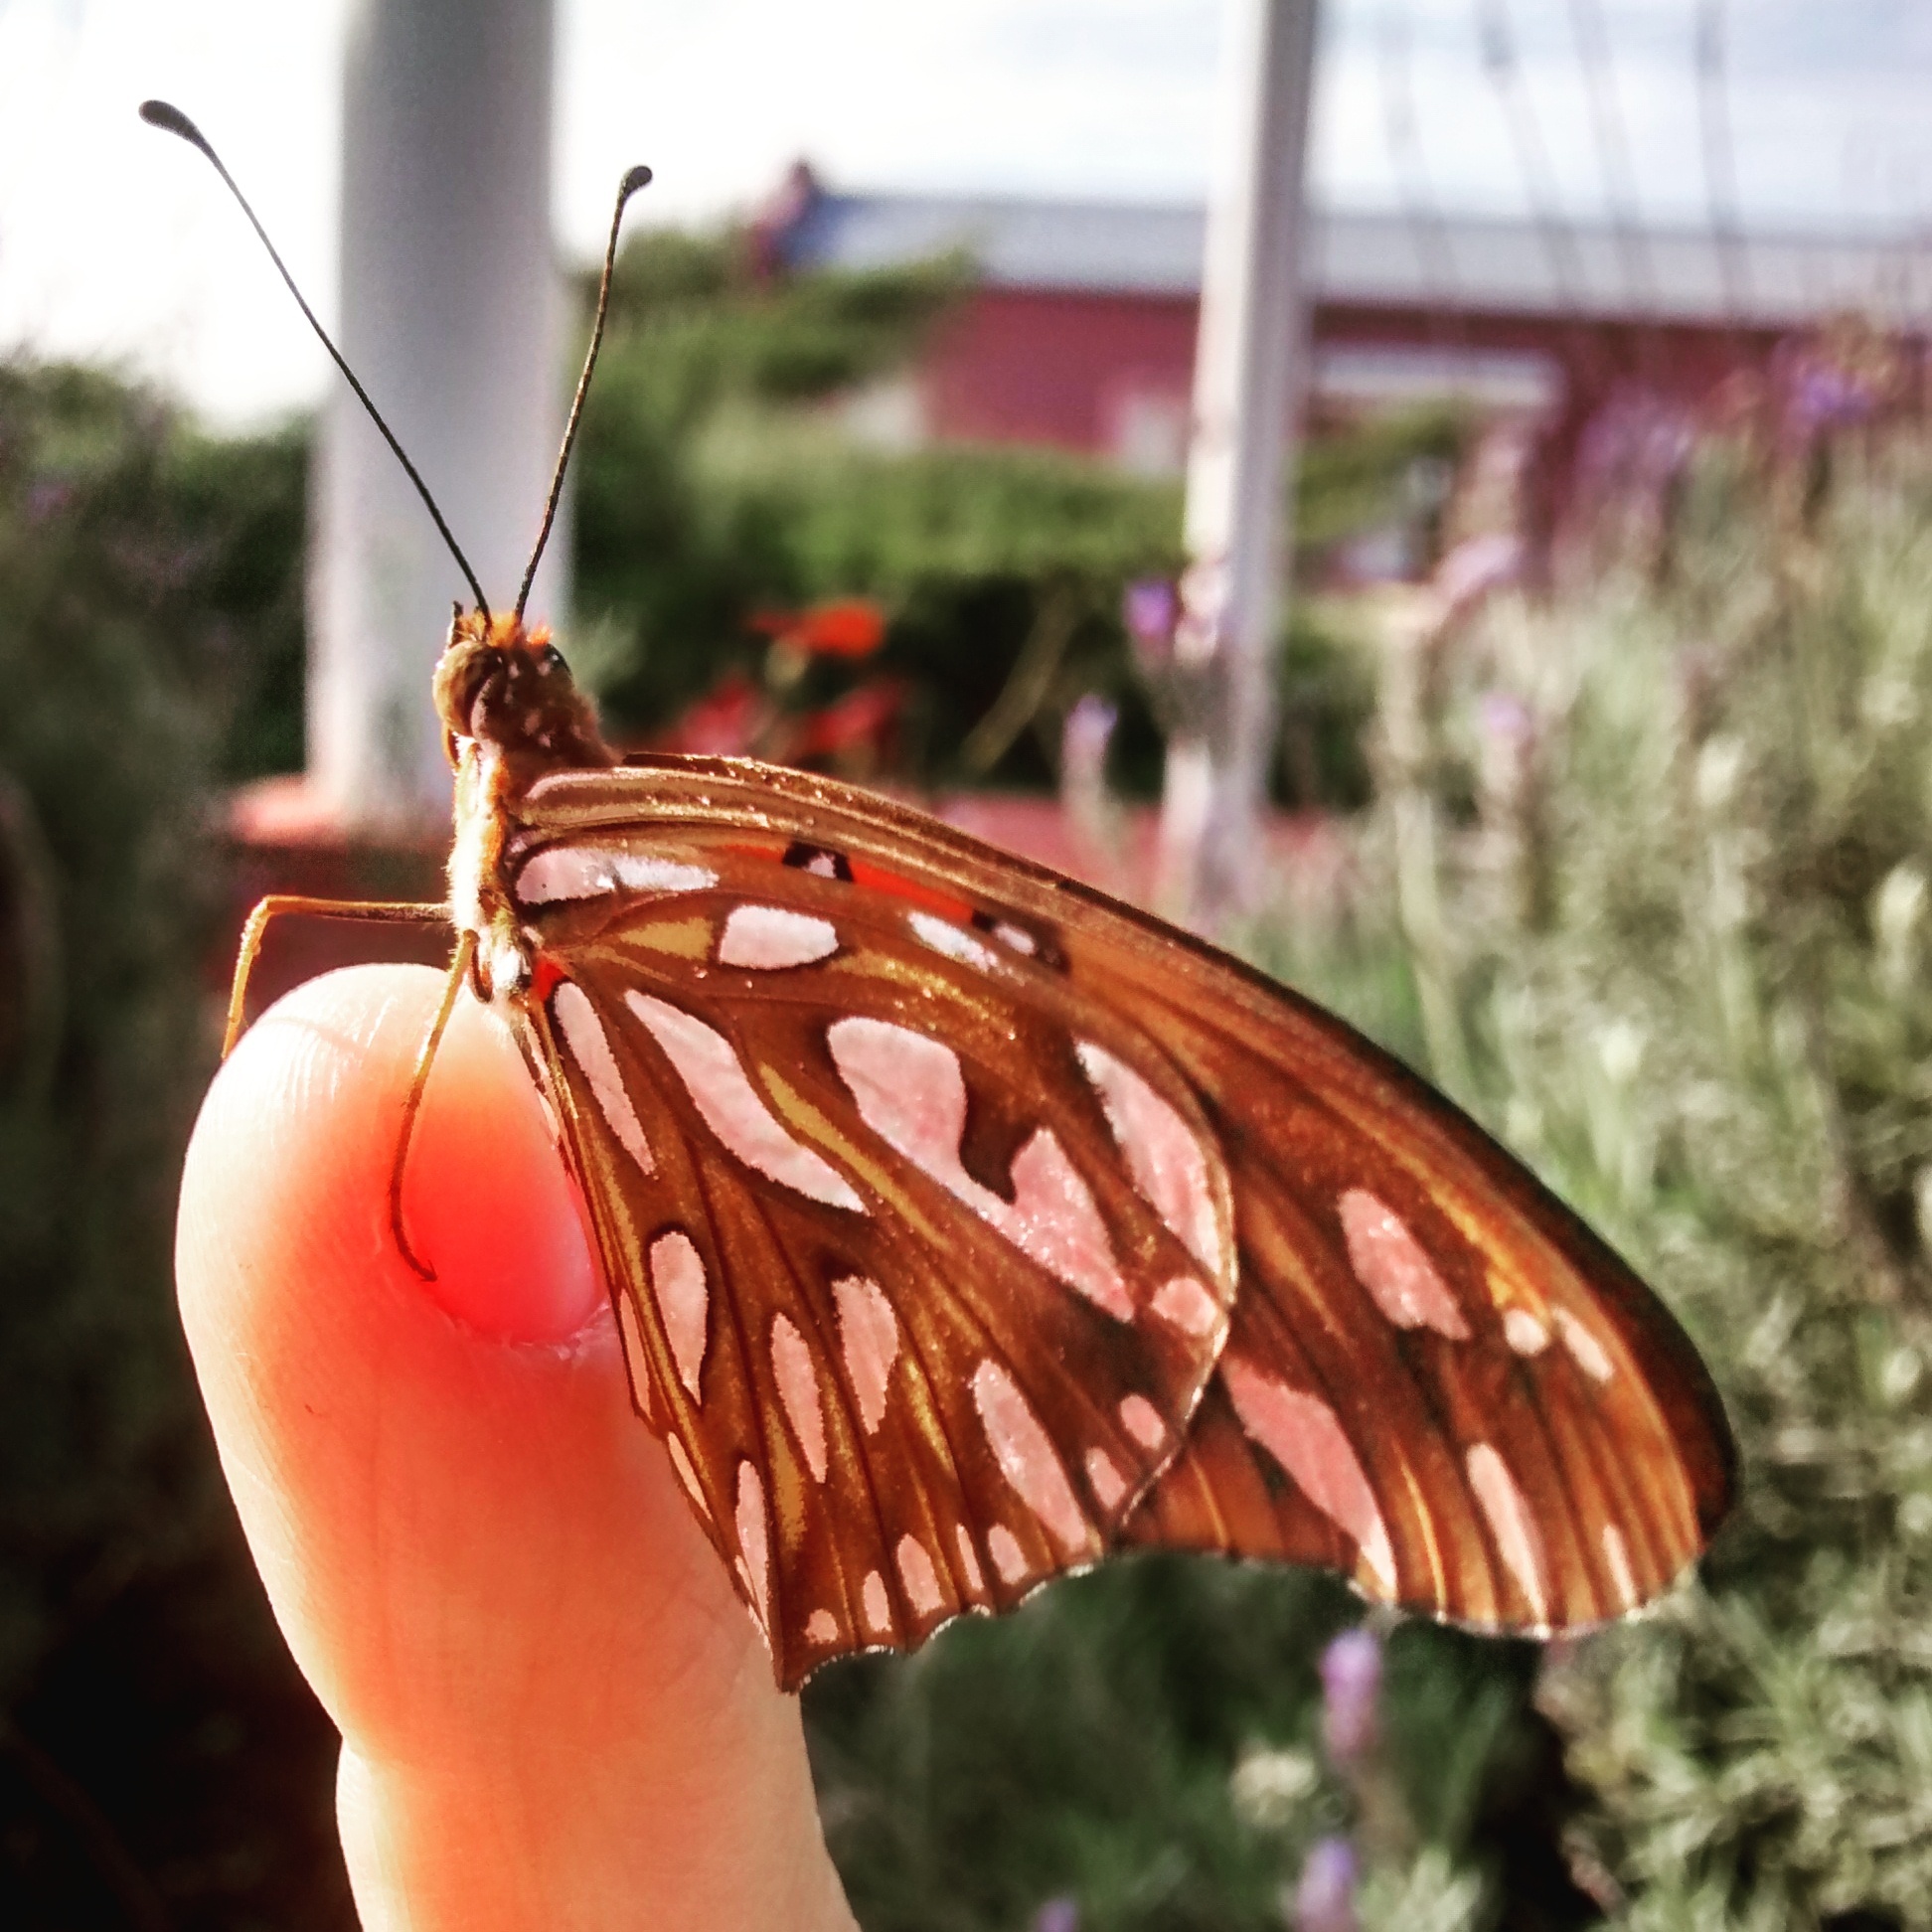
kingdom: Animalia
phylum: Arthropoda
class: Insecta
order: Lepidoptera
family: Nymphalidae
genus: Dione
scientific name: Dione vanillae
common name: Gulf fritillary
